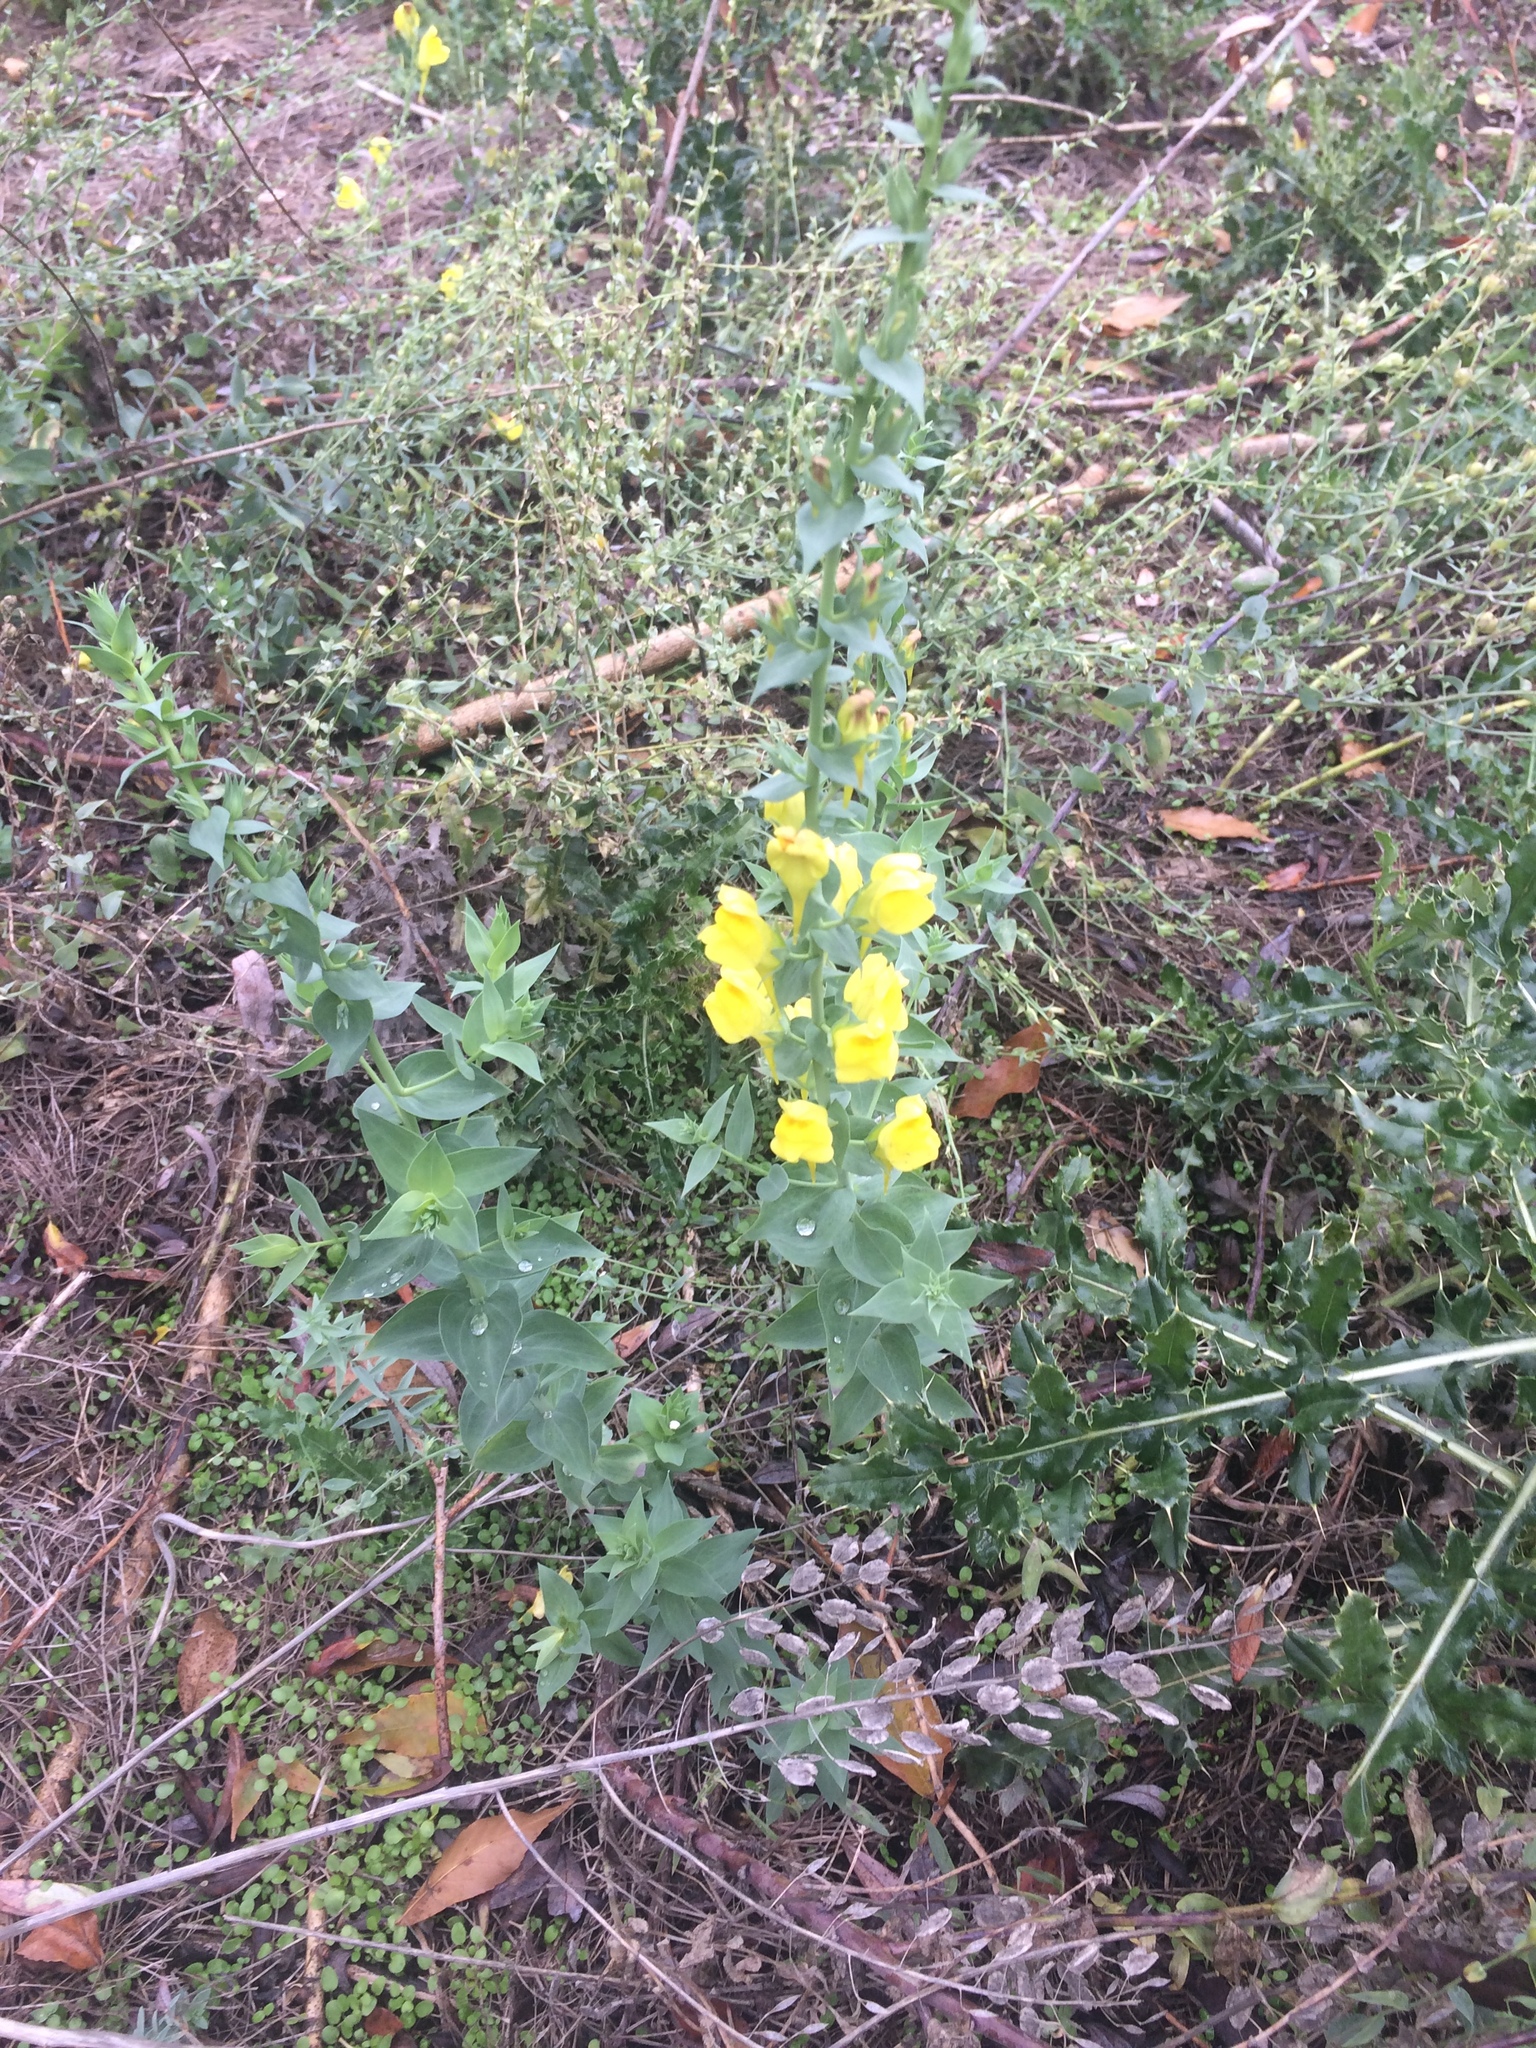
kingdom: Plantae
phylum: Tracheophyta
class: Magnoliopsida
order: Lamiales
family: Plantaginaceae
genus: Linaria
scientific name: Linaria dalmatica
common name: Dalmatian toadflax
